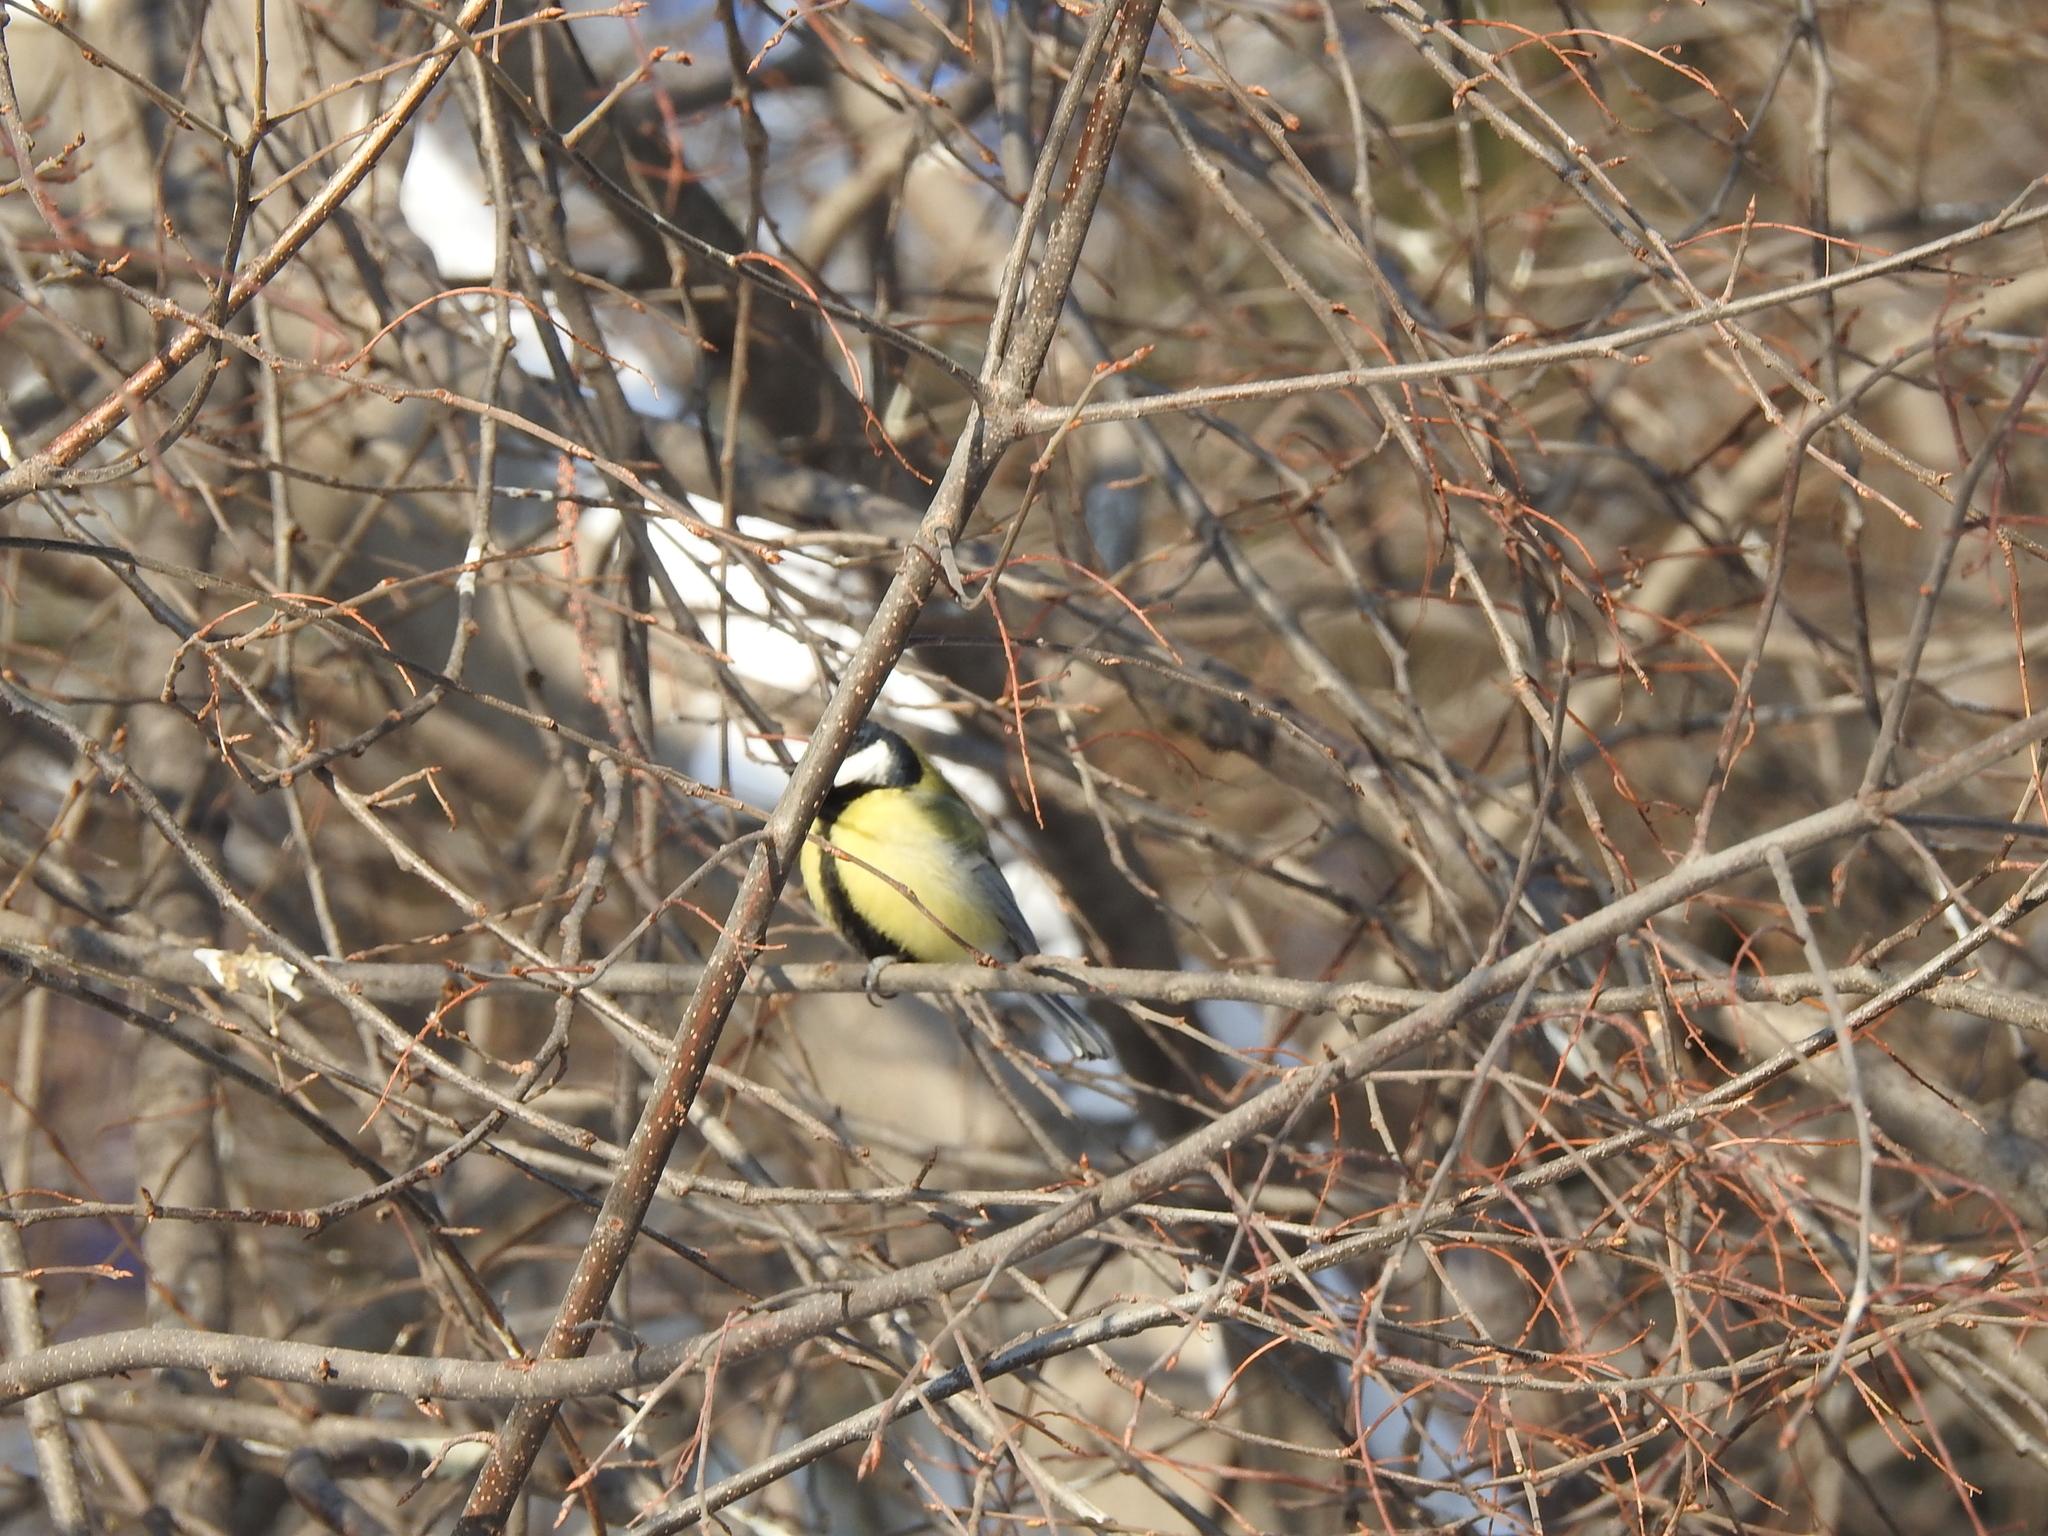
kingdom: Animalia
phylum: Chordata
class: Aves
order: Passeriformes
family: Paridae
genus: Parus
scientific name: Parus major
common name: Great tit
